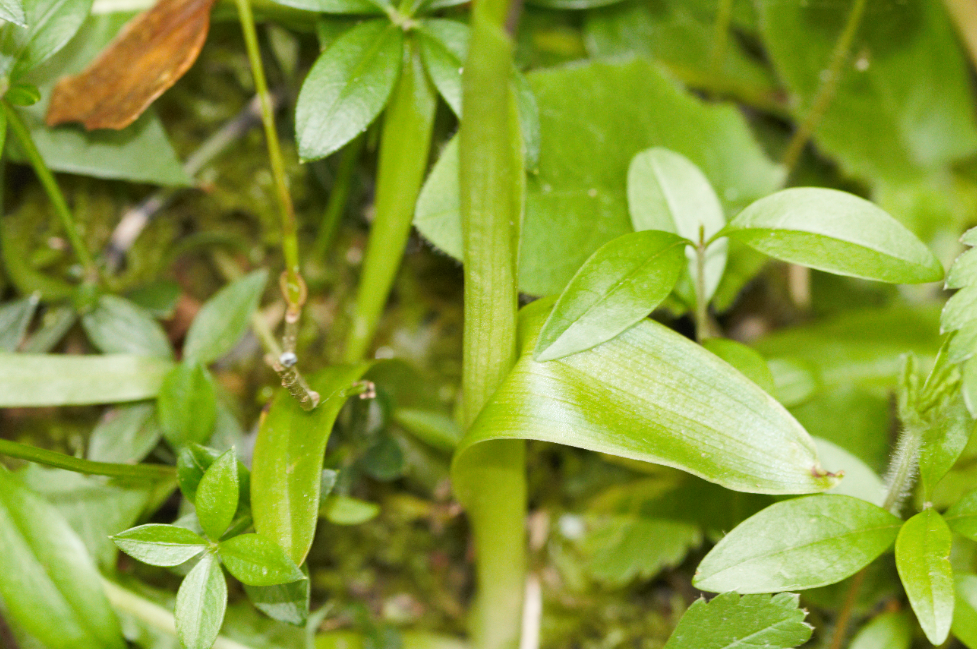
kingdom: Plantae
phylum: Tracheophyta
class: Liliopsida
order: Asparagales
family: Orchidaceae
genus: Orchis
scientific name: Orchis mascula
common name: Early-purple orchid
